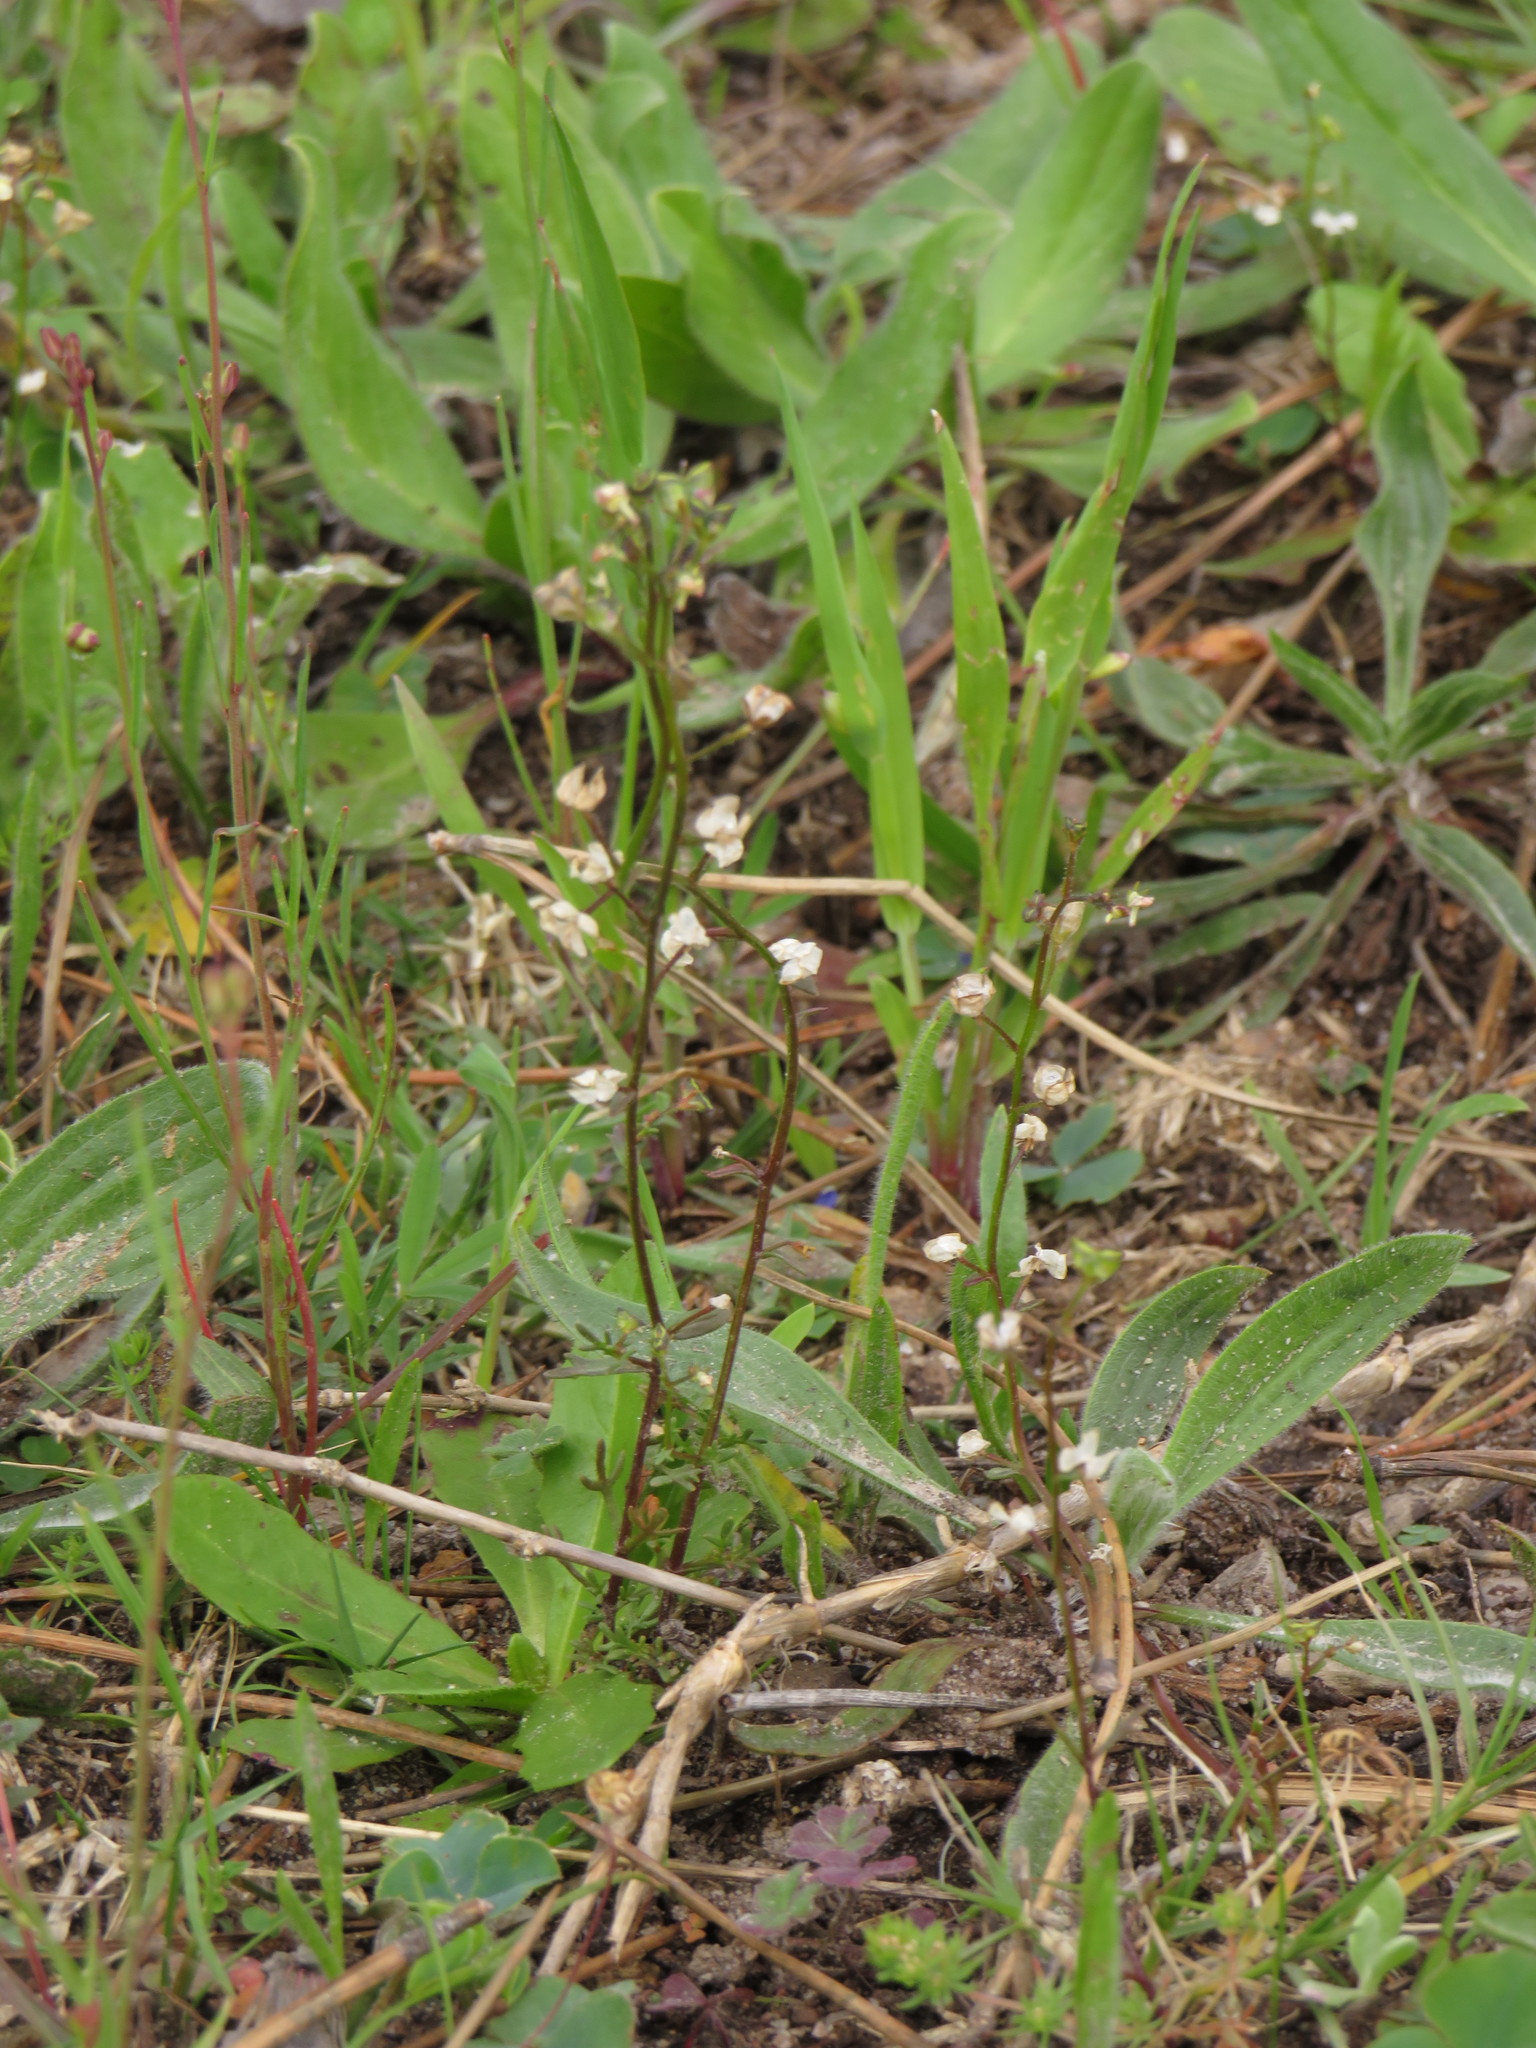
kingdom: Plantae
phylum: Tracheophyta
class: Magnoliopsida
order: Lamiales
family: Scrophulariaceae
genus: Nemesia
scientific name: Nemesia pinnata
